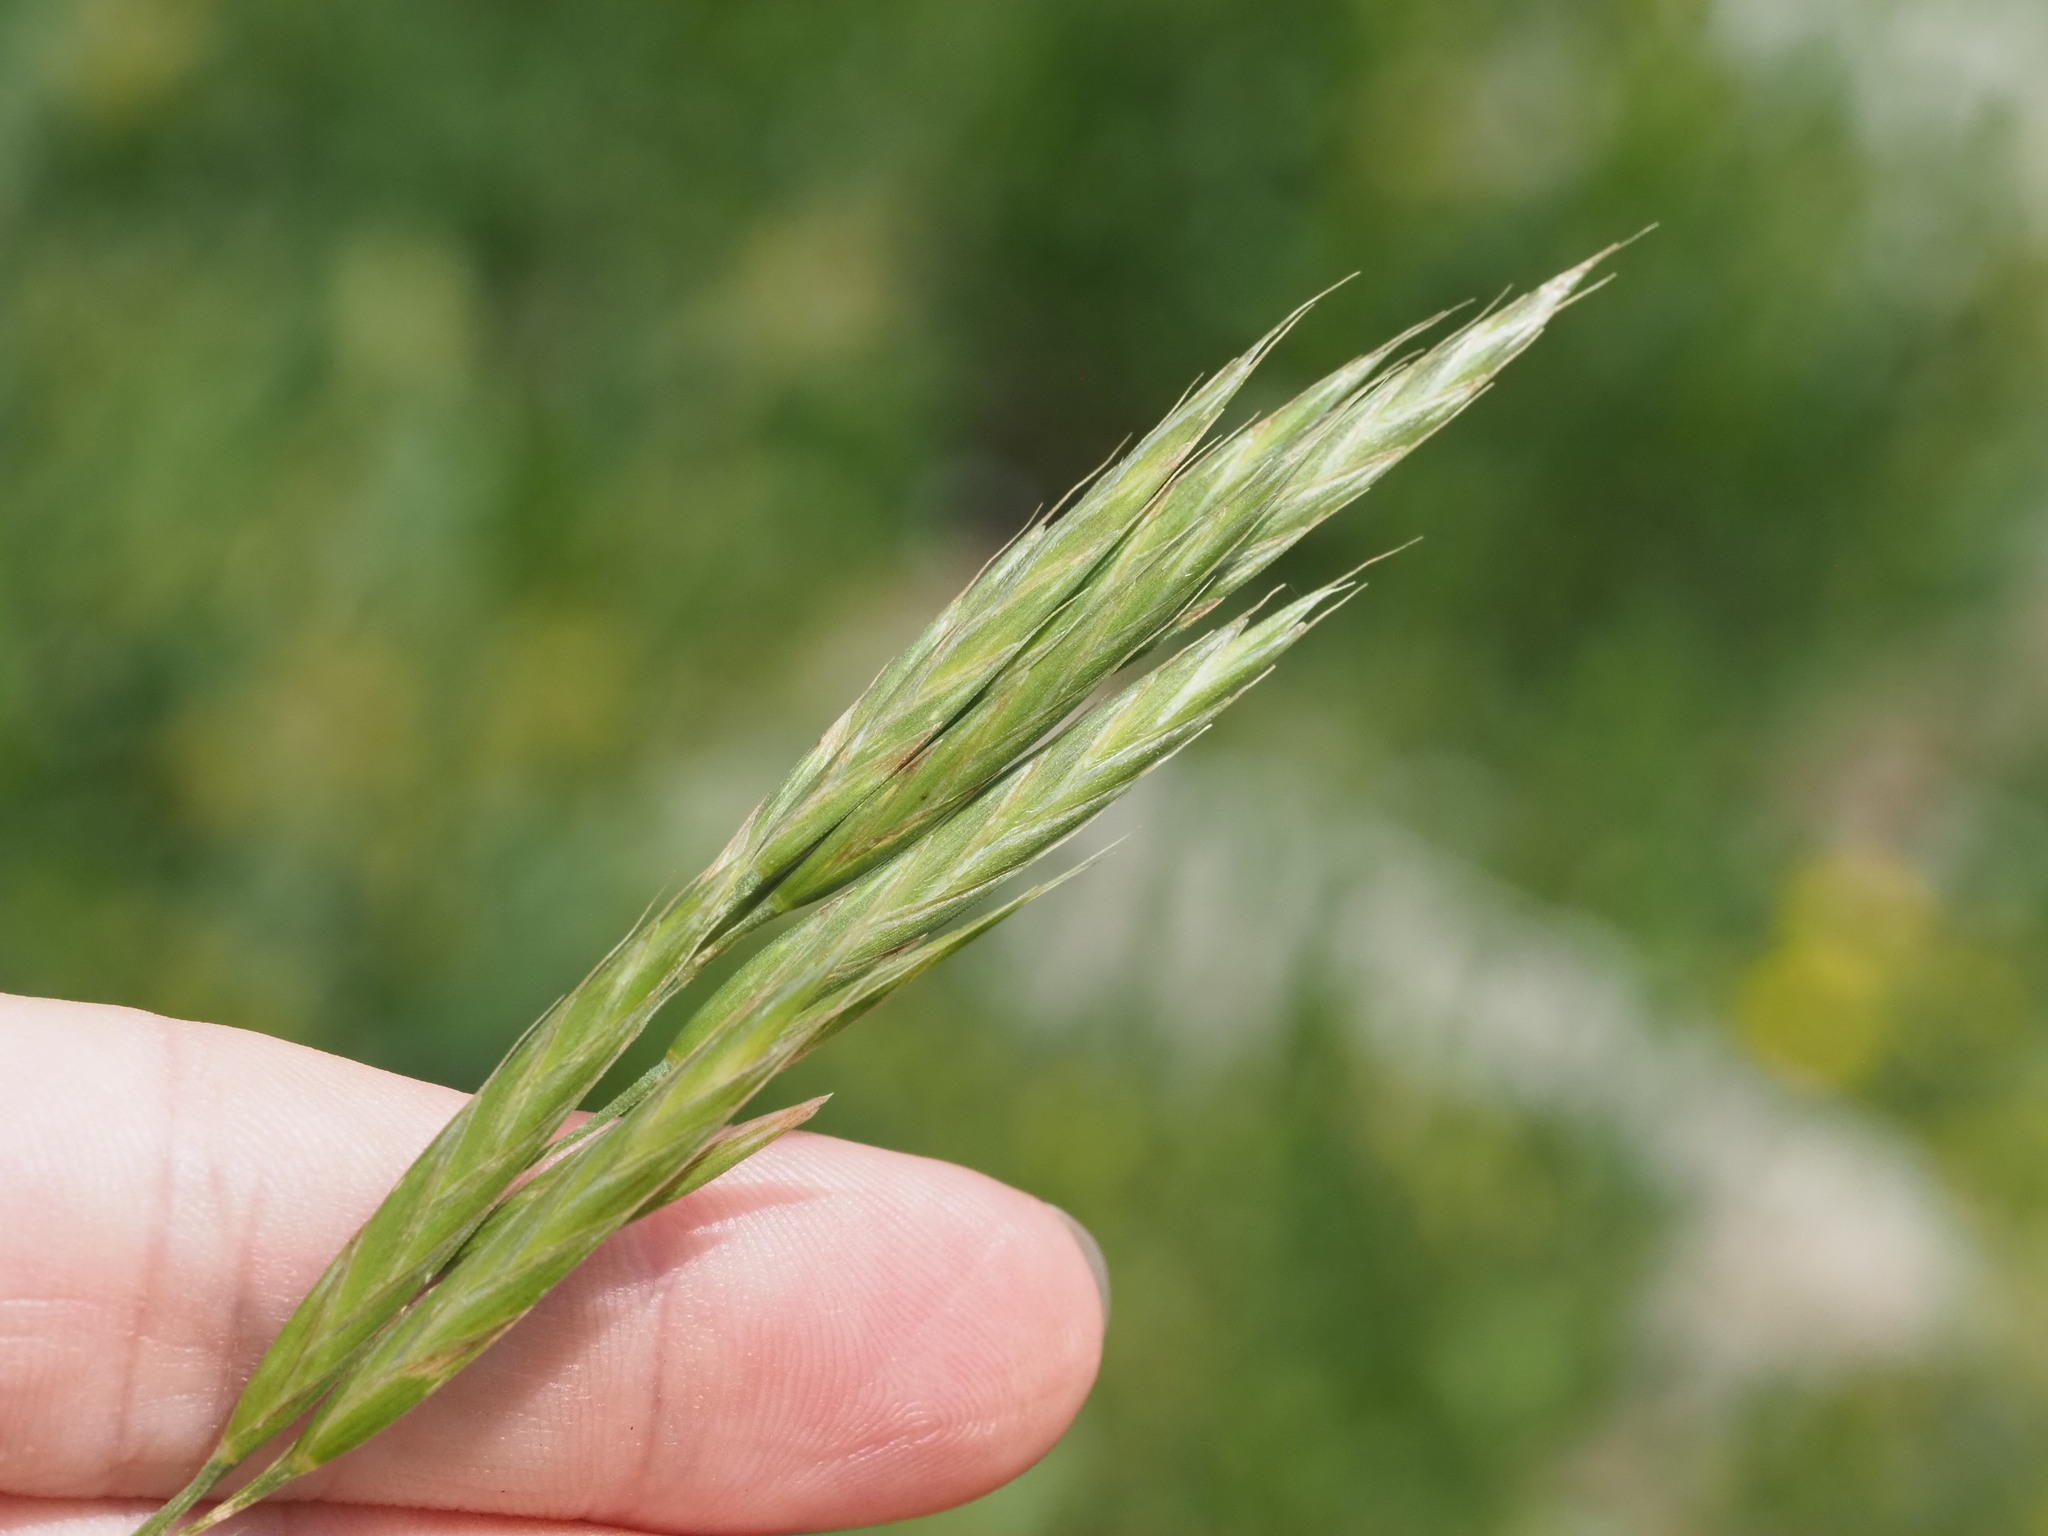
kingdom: Plantae
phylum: Tracheophyta
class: Liliopsida
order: Poales
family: Poaceae
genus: Bromus
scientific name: Bromus marginatus
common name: Western brome
